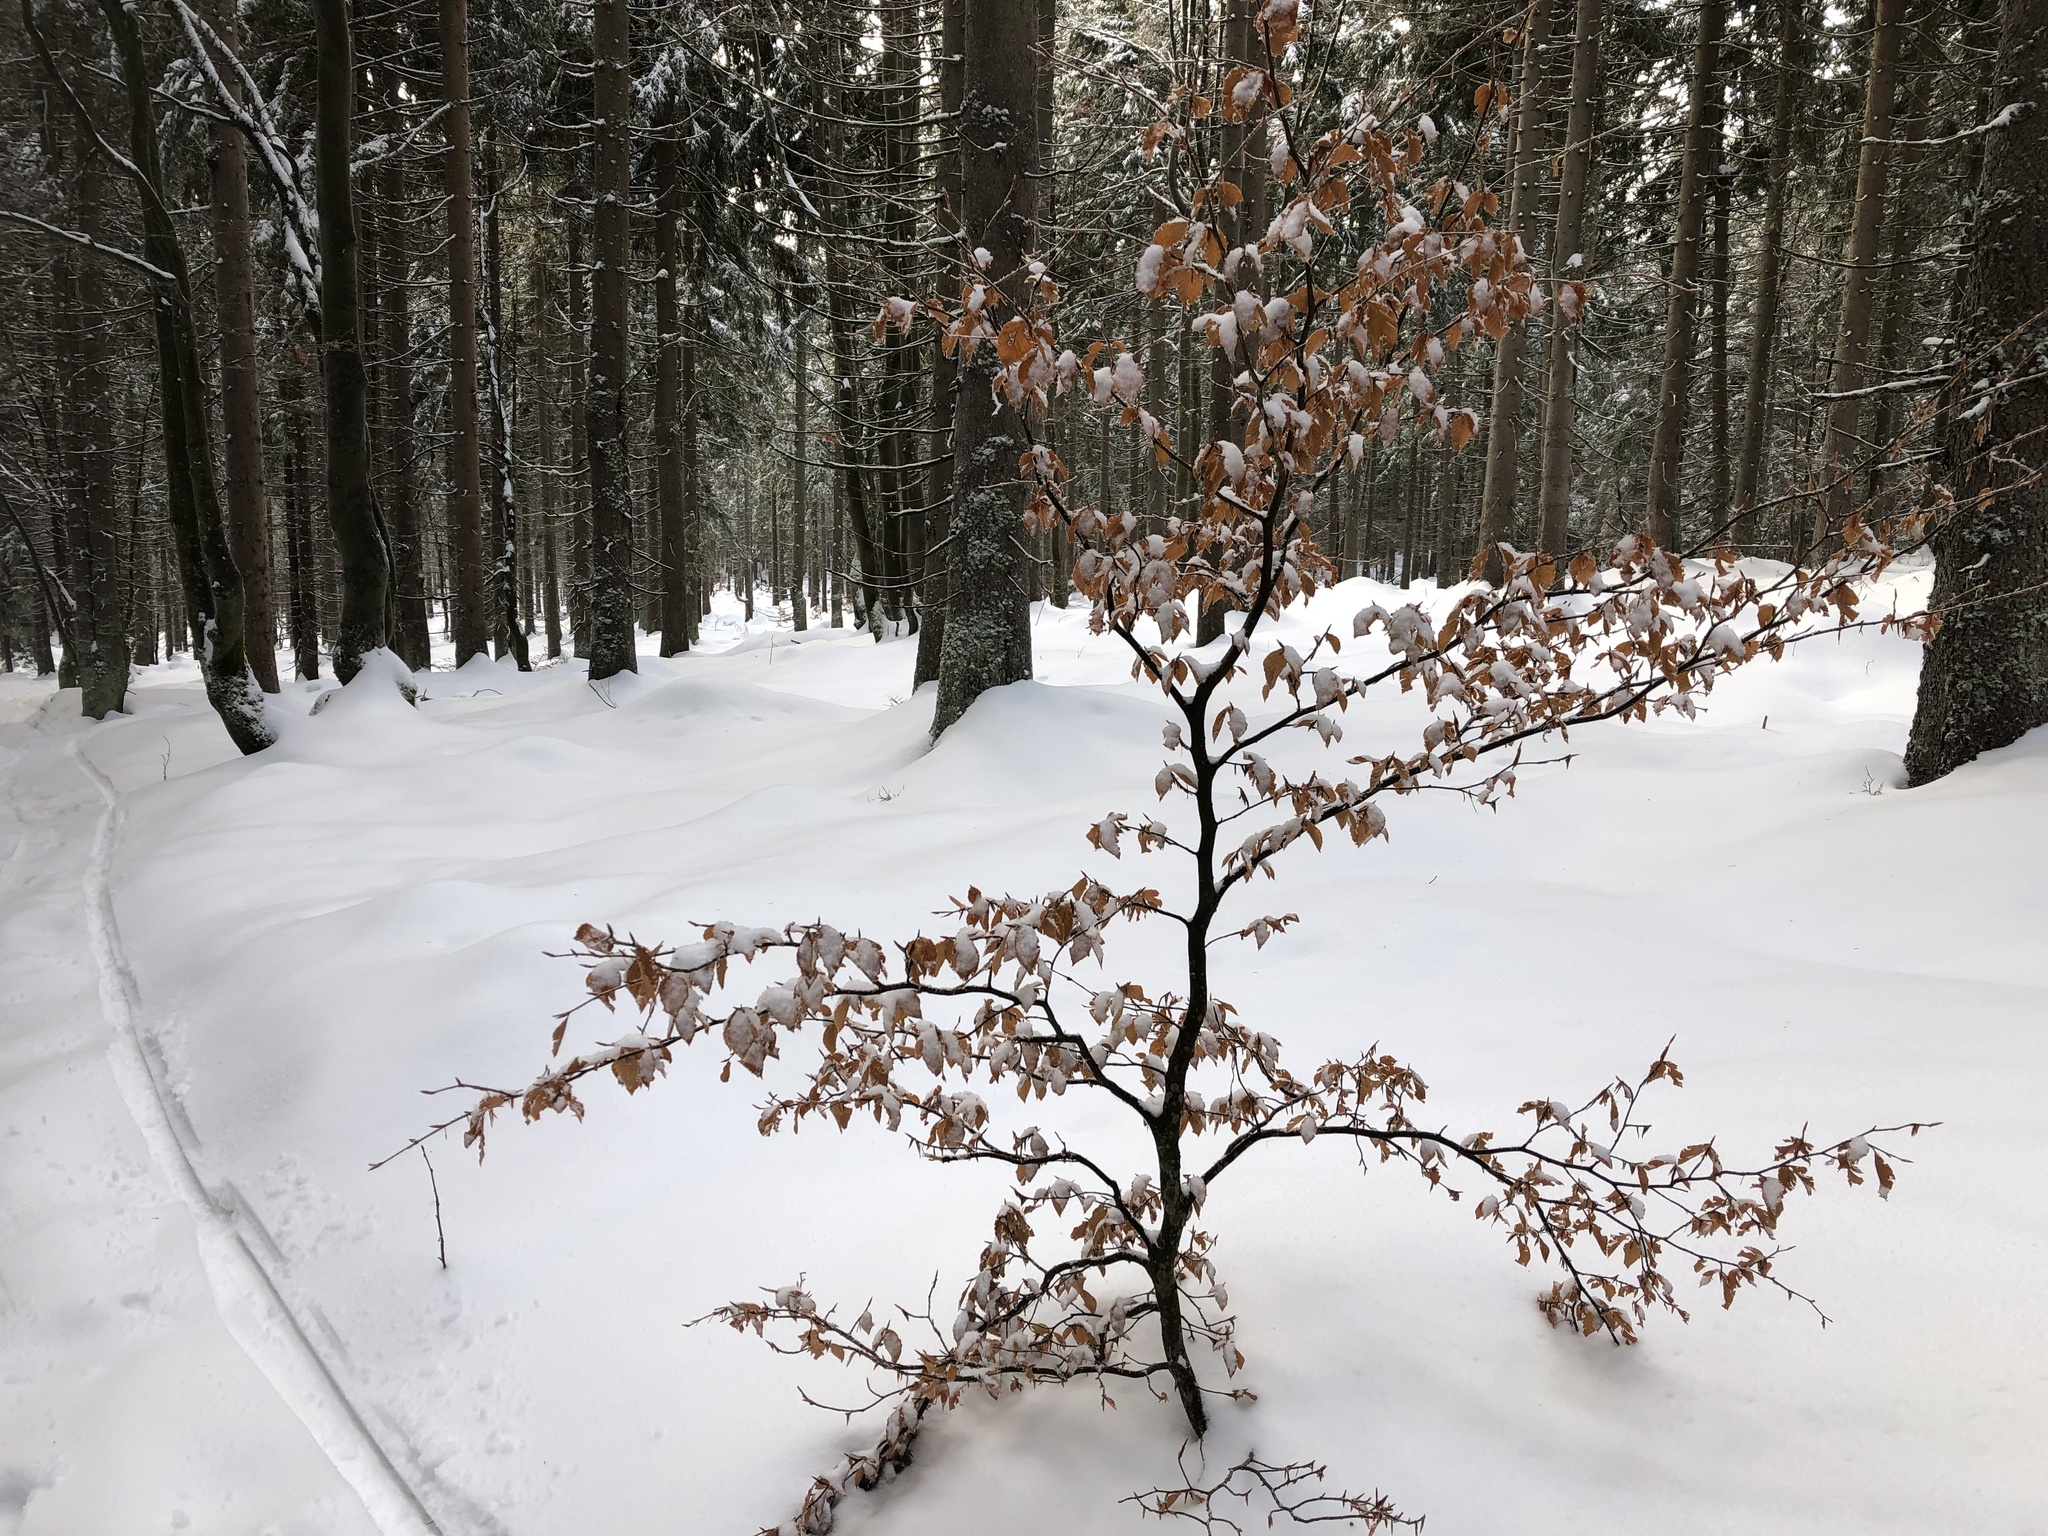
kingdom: Plantae
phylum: Tracheophyta
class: Magnoliopsida
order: Fagales
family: Fagaceae
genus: Fagus
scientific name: Fagus sylvatica
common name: Beech
